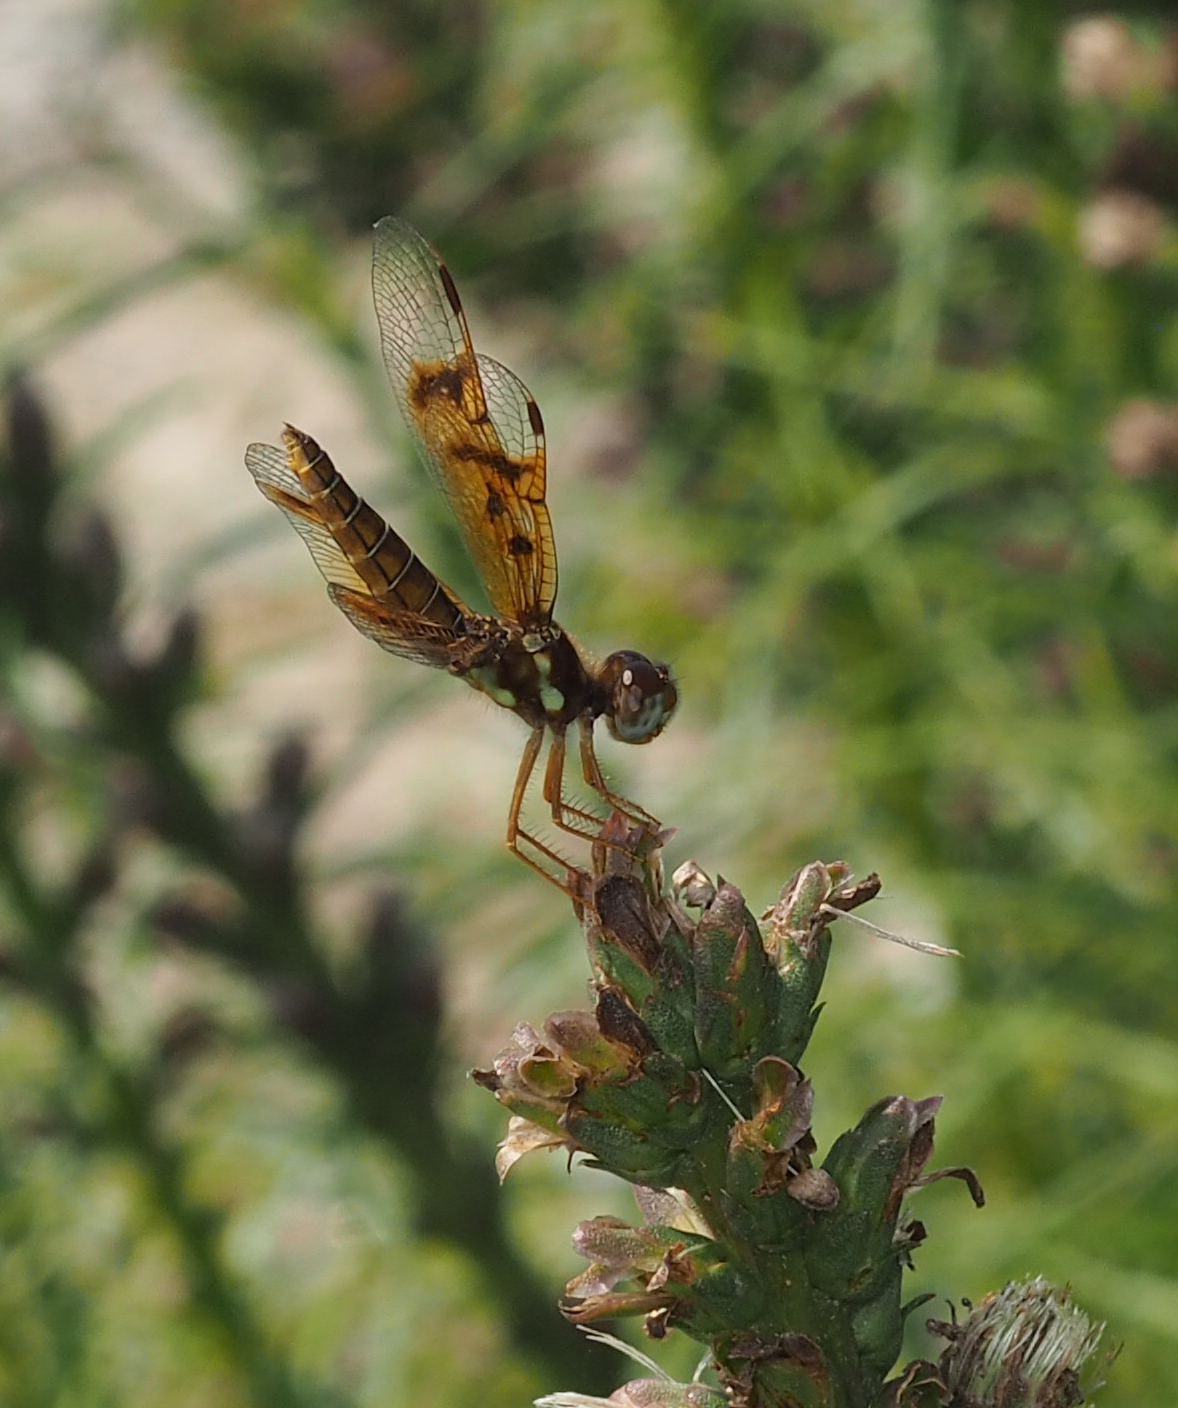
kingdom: Animalia
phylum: Arthropoda
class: Insecta
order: Odonata
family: Libellulidae
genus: Perithemis
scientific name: Perithemis tenera
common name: Eastern amberwing
